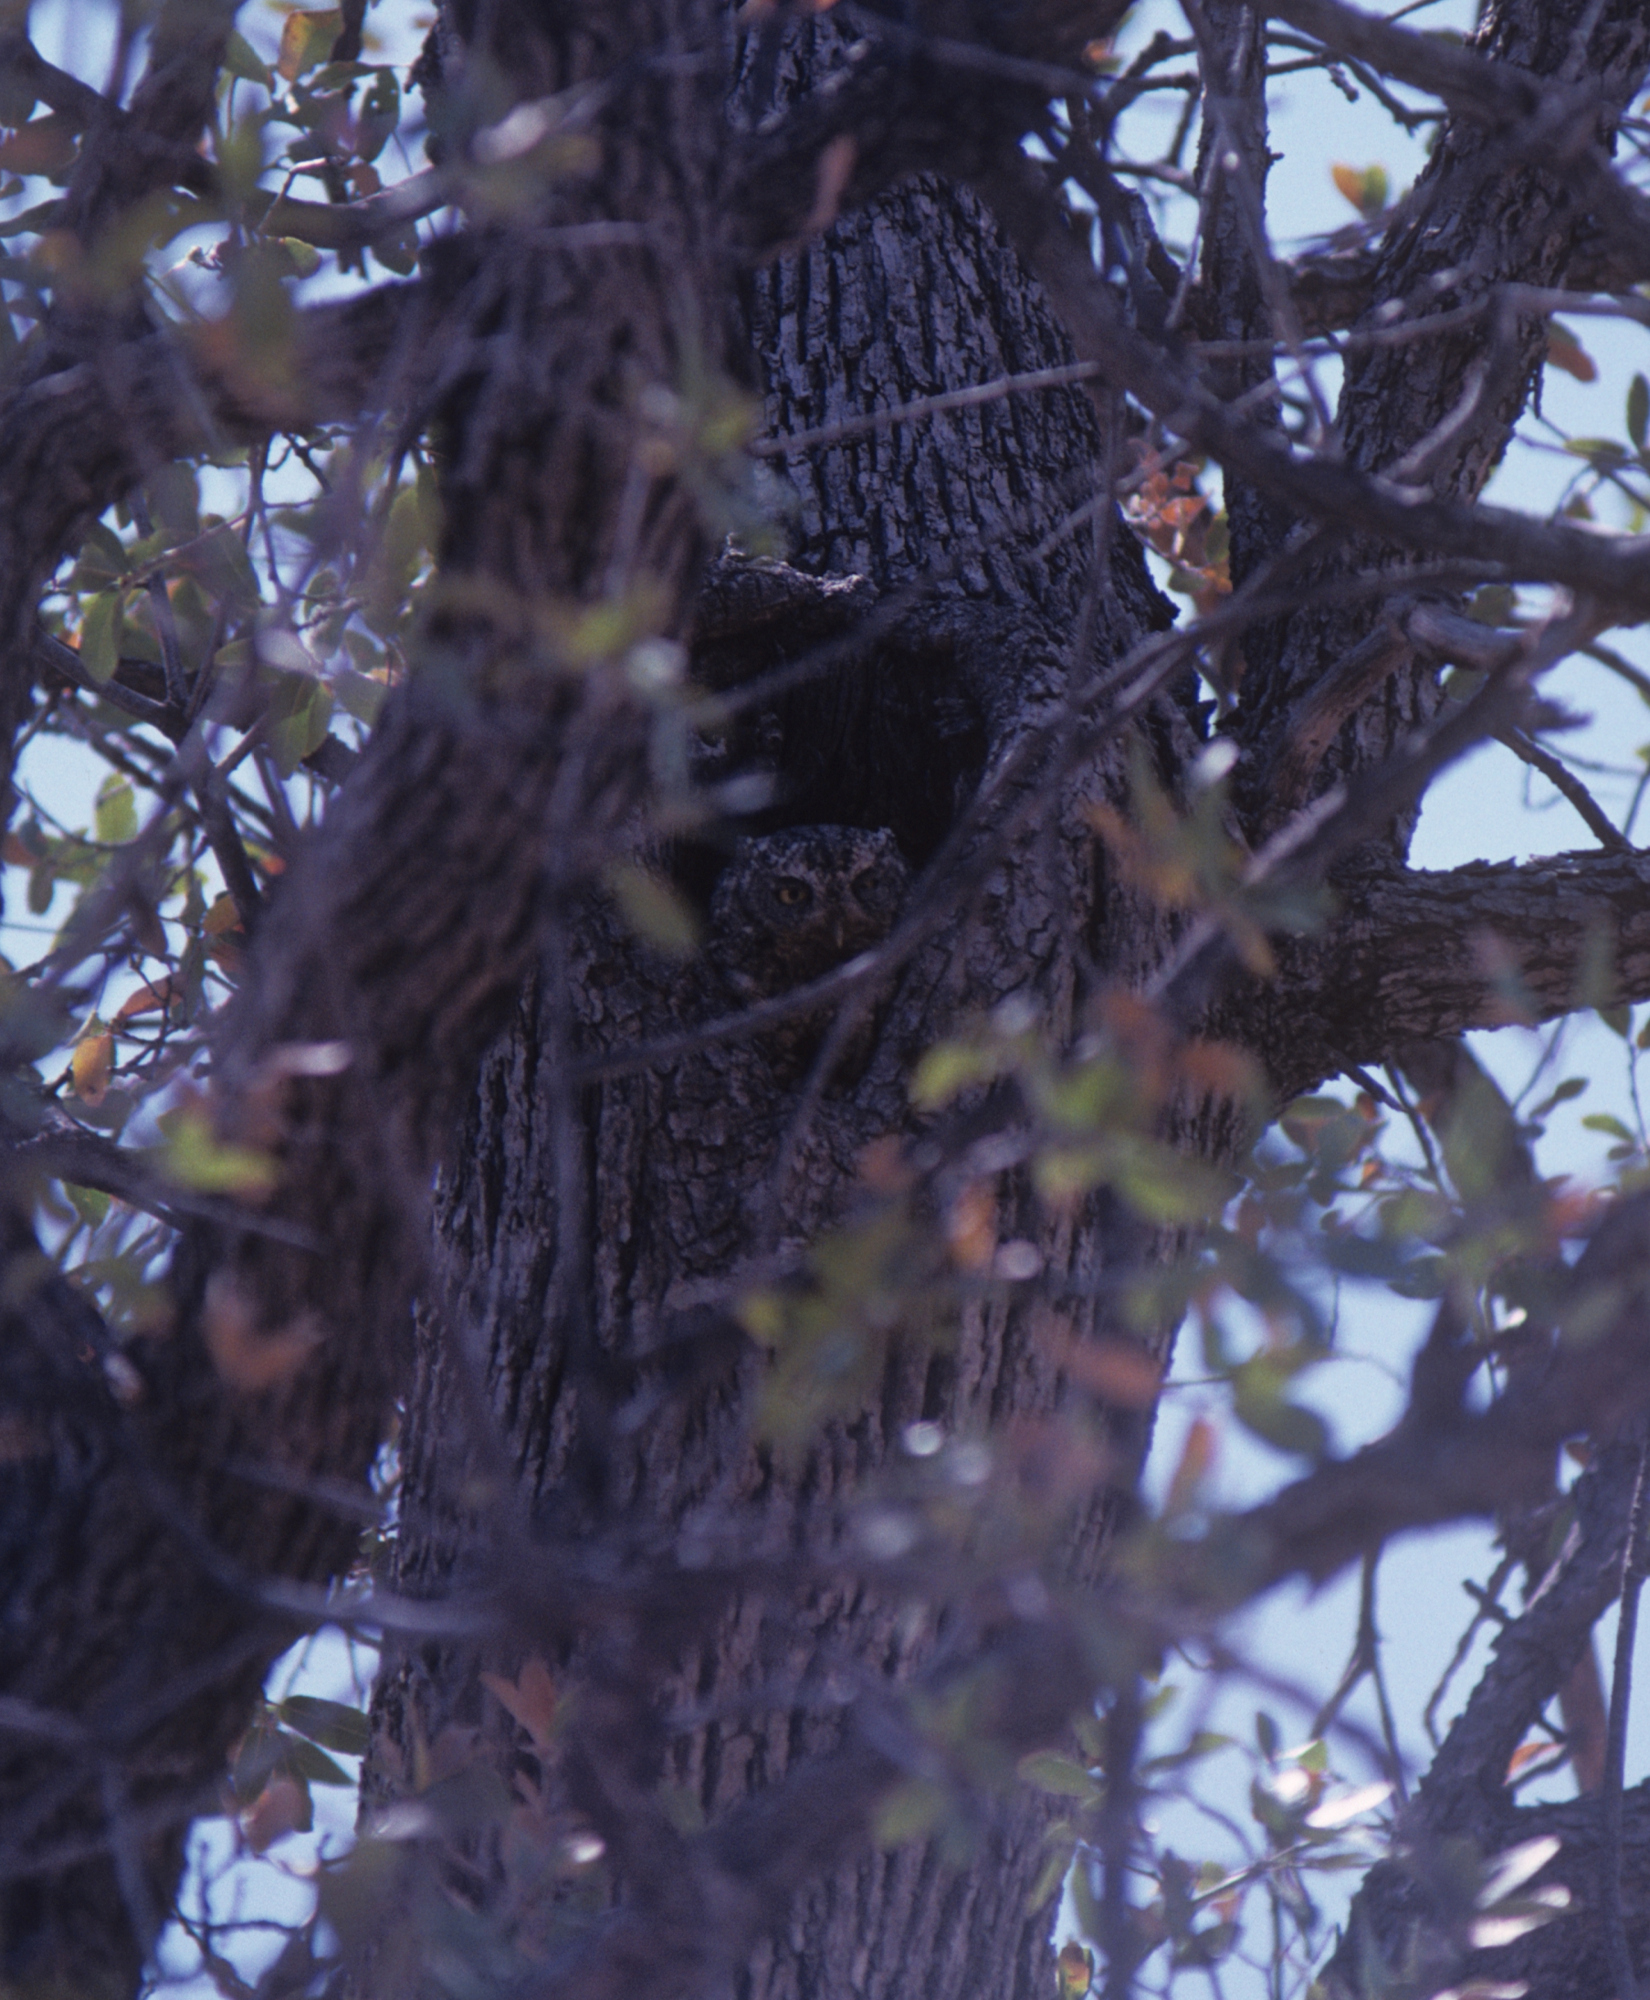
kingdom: Animalia
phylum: Chordata
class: Aves
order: Strigiformes
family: Strigidae
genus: Megascops
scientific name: Megascops trichopsis
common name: Whiskered screech-owl
